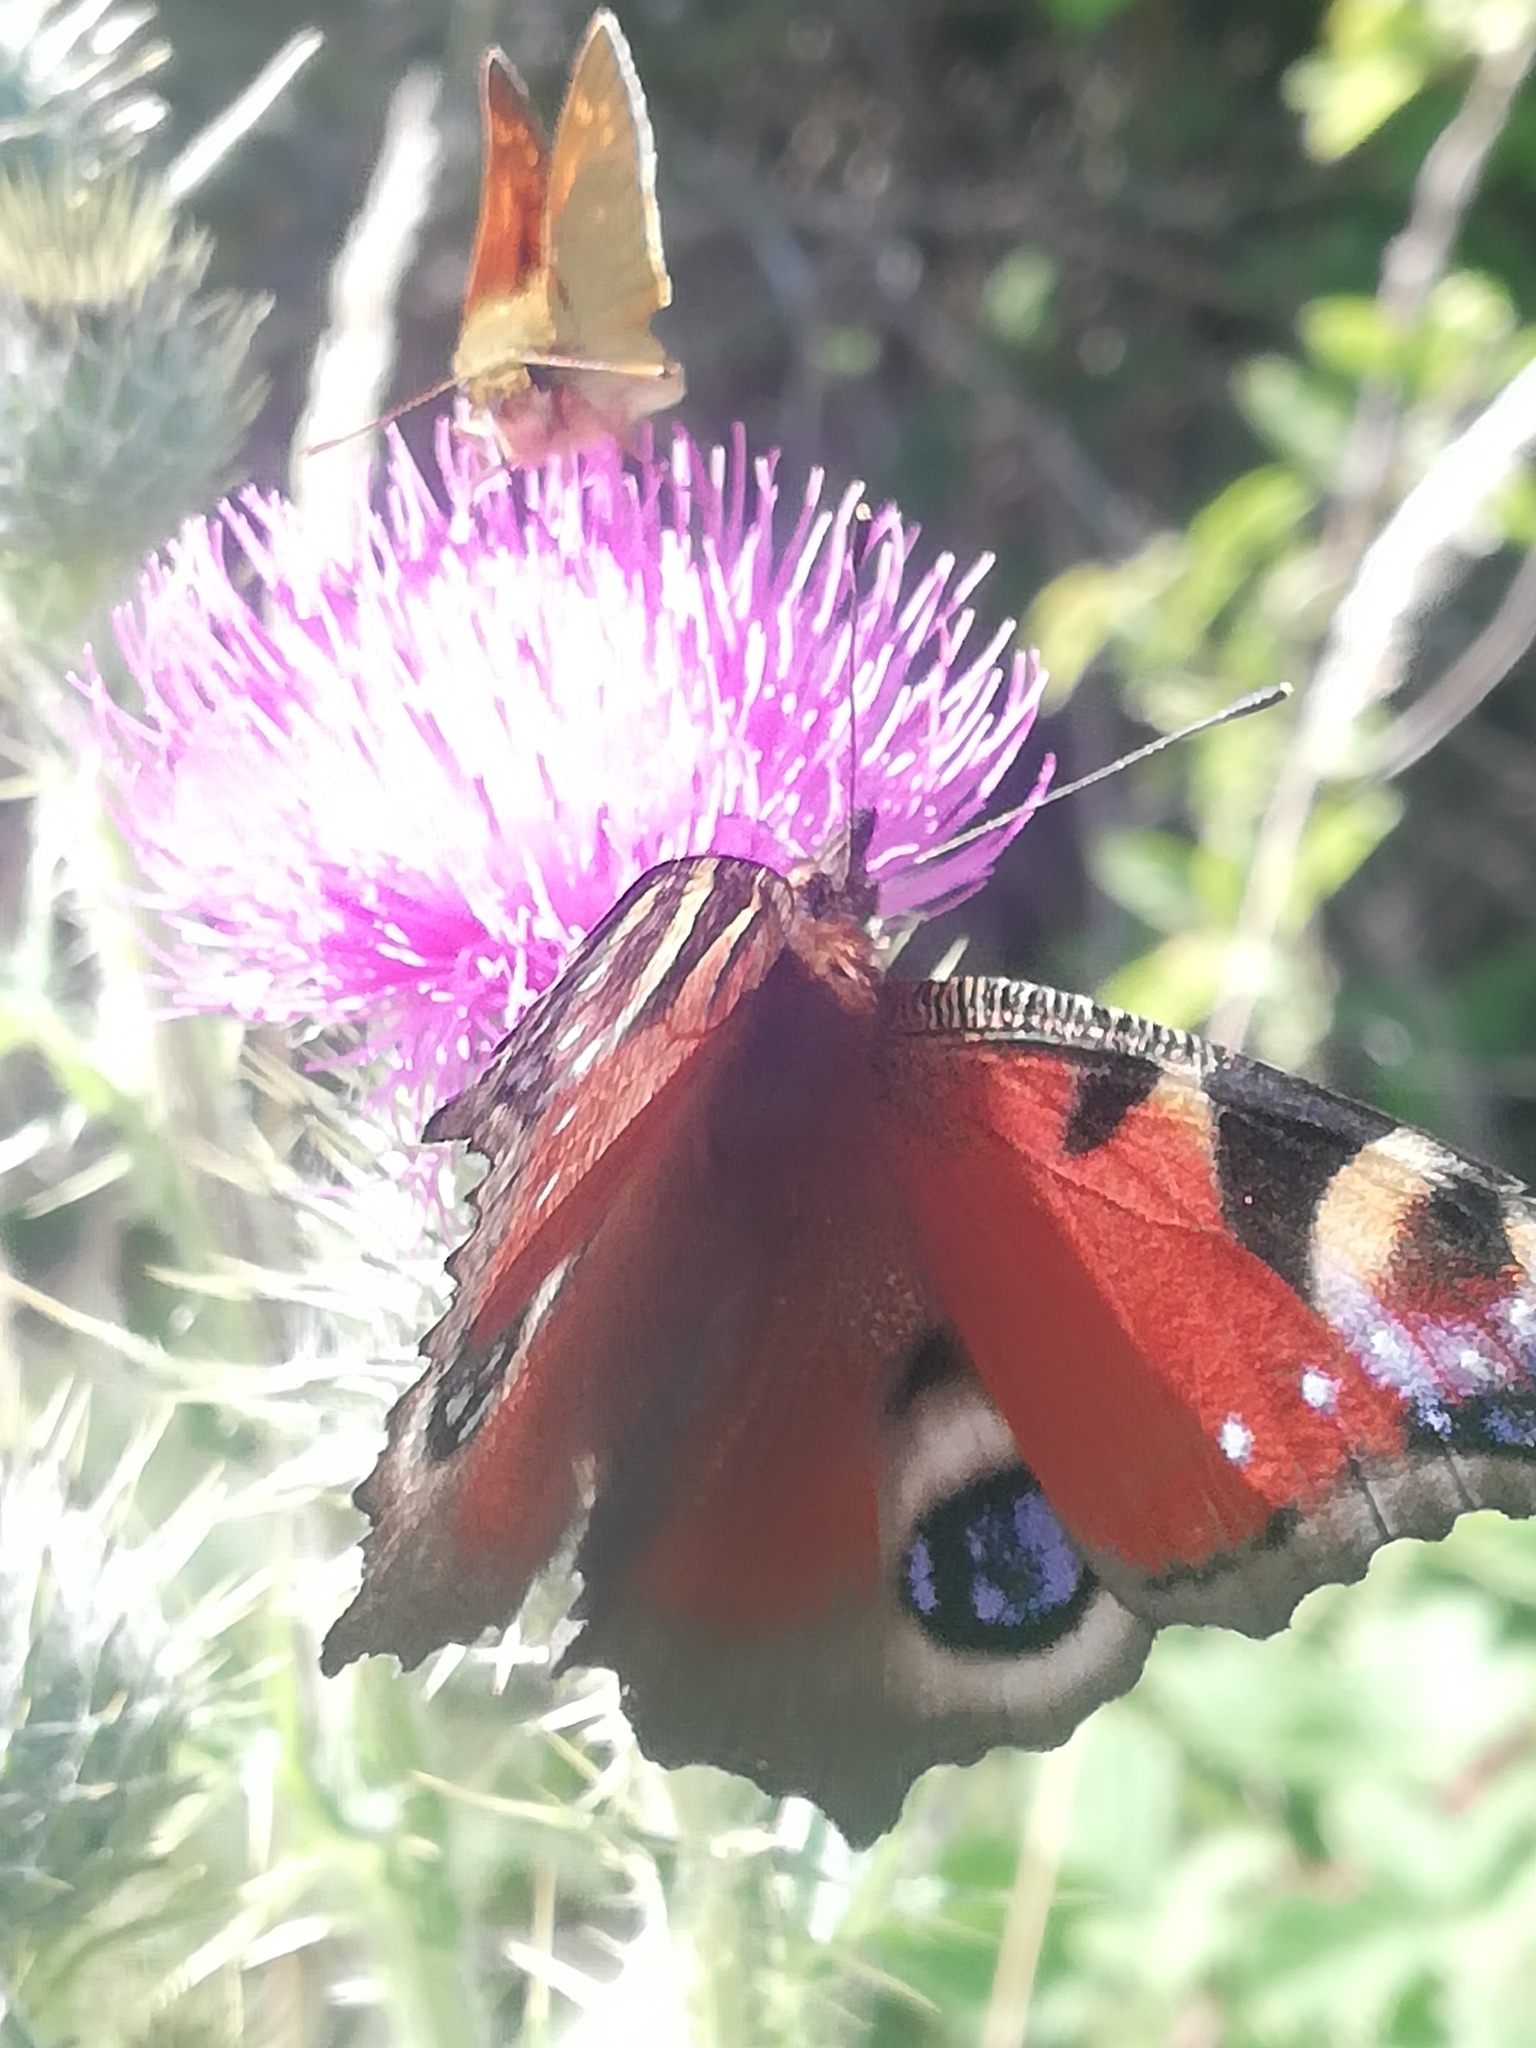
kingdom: Animalia
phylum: Arthropoda
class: Insecta
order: Lepidoptera
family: Nymphalidae
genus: Aglais
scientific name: Aglais io
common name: Peacock
